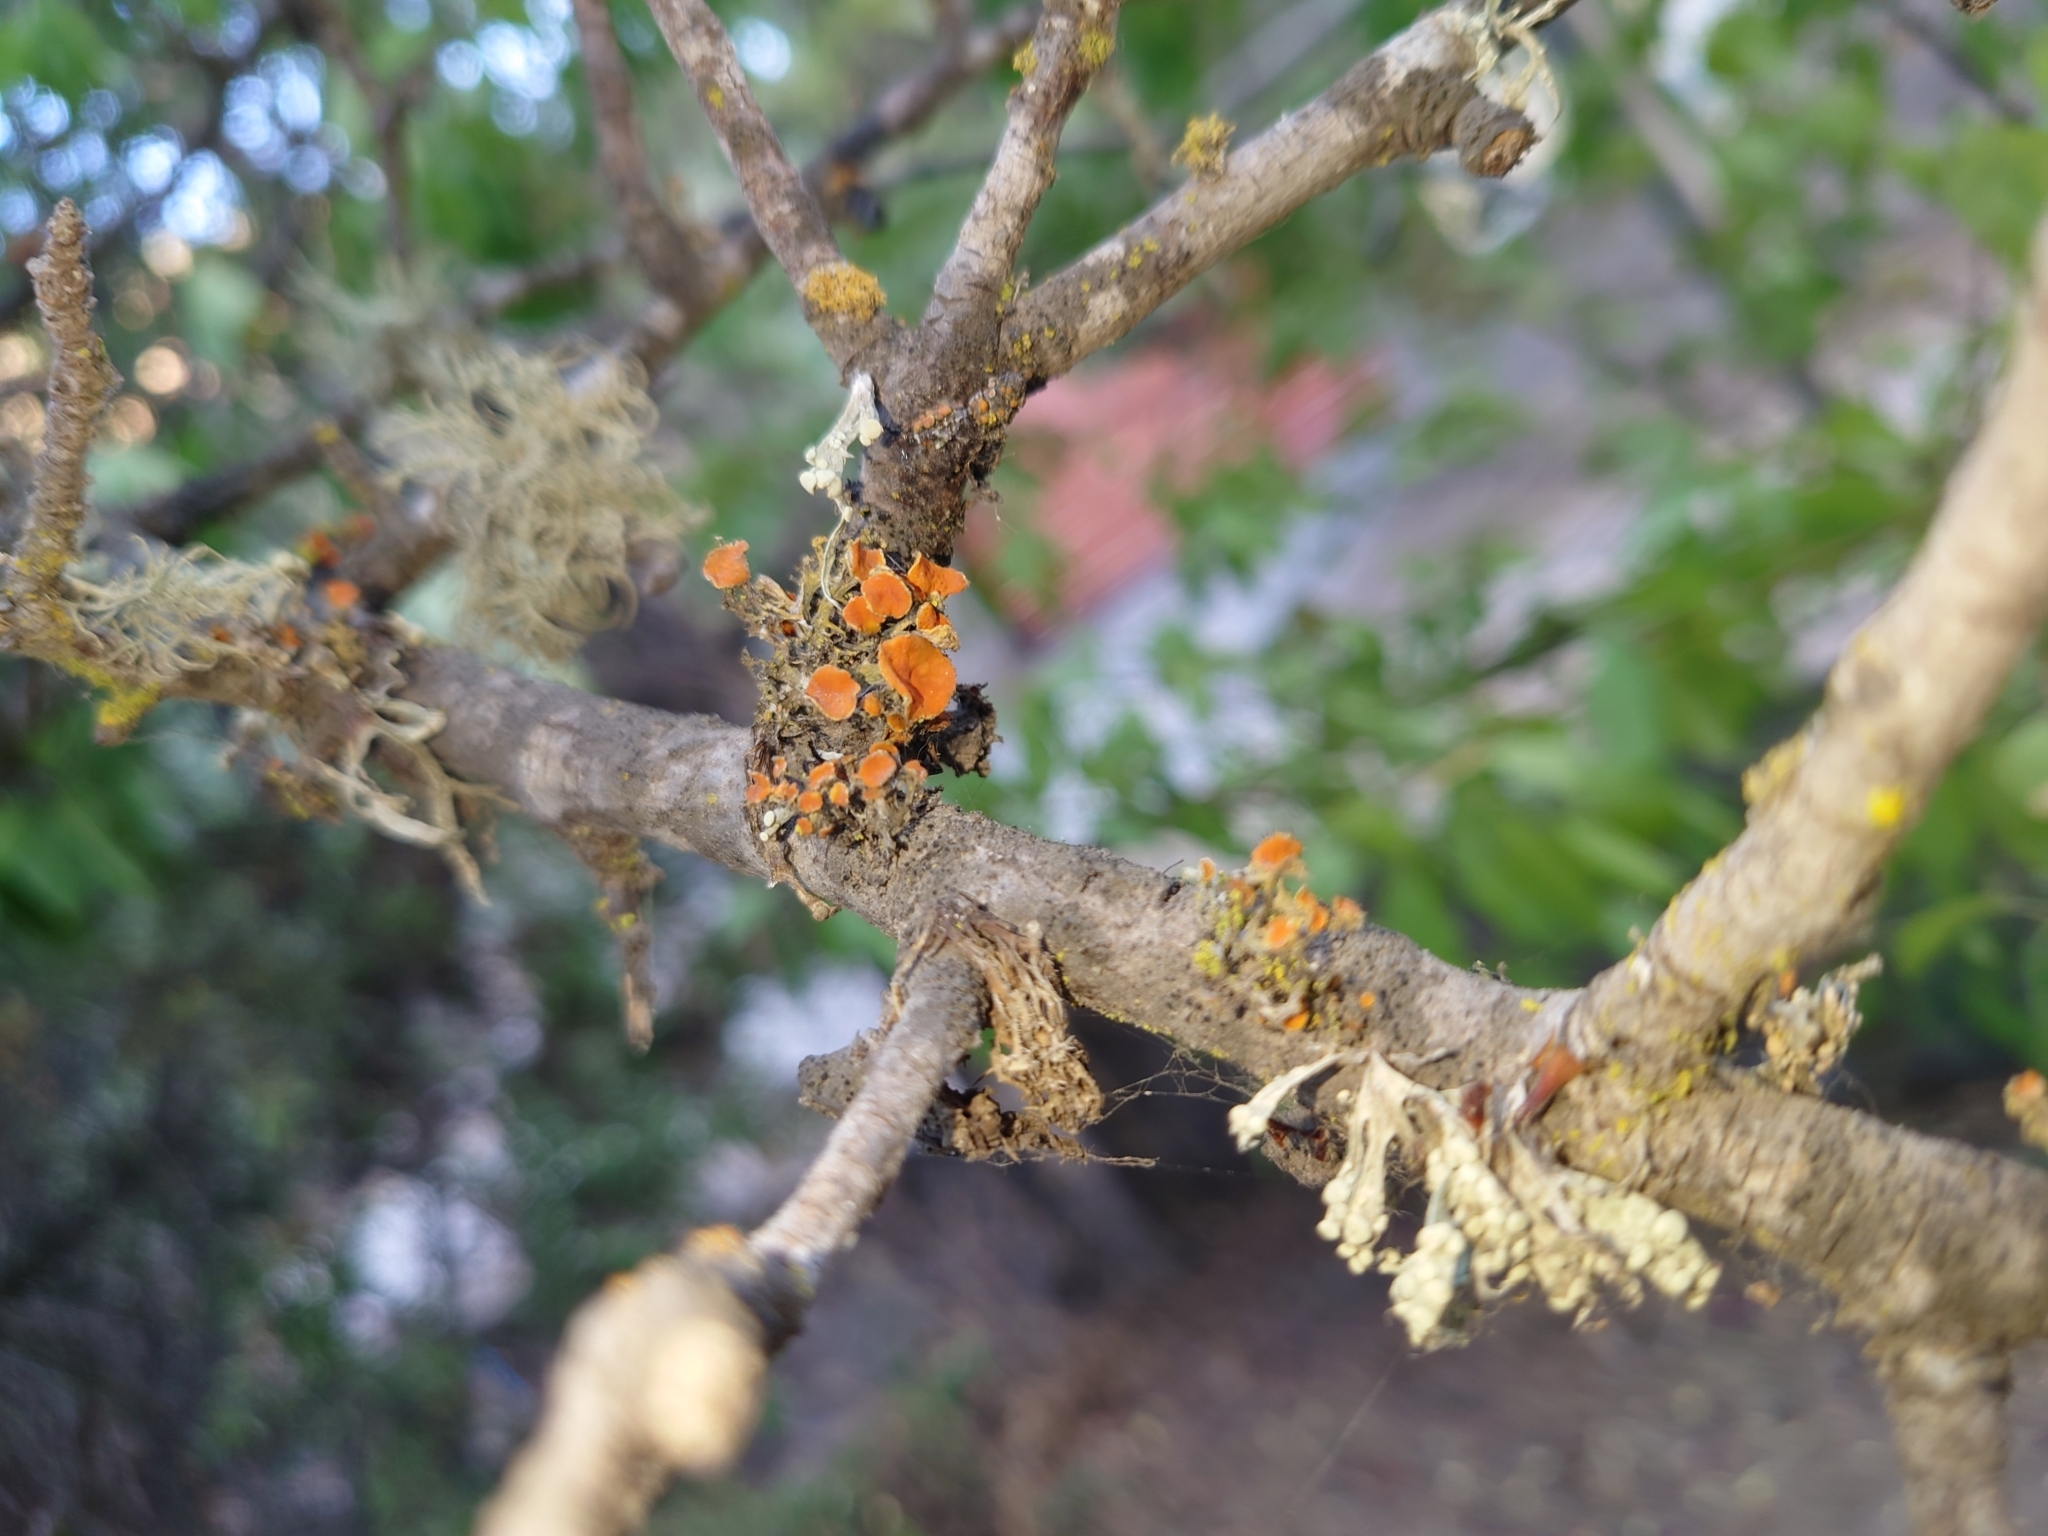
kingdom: Fungi
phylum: Ascomycota
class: Lecanoromycetes
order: Teloschistales
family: Teloschistaceae
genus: Niorma
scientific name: Niorma chrysophthalma
